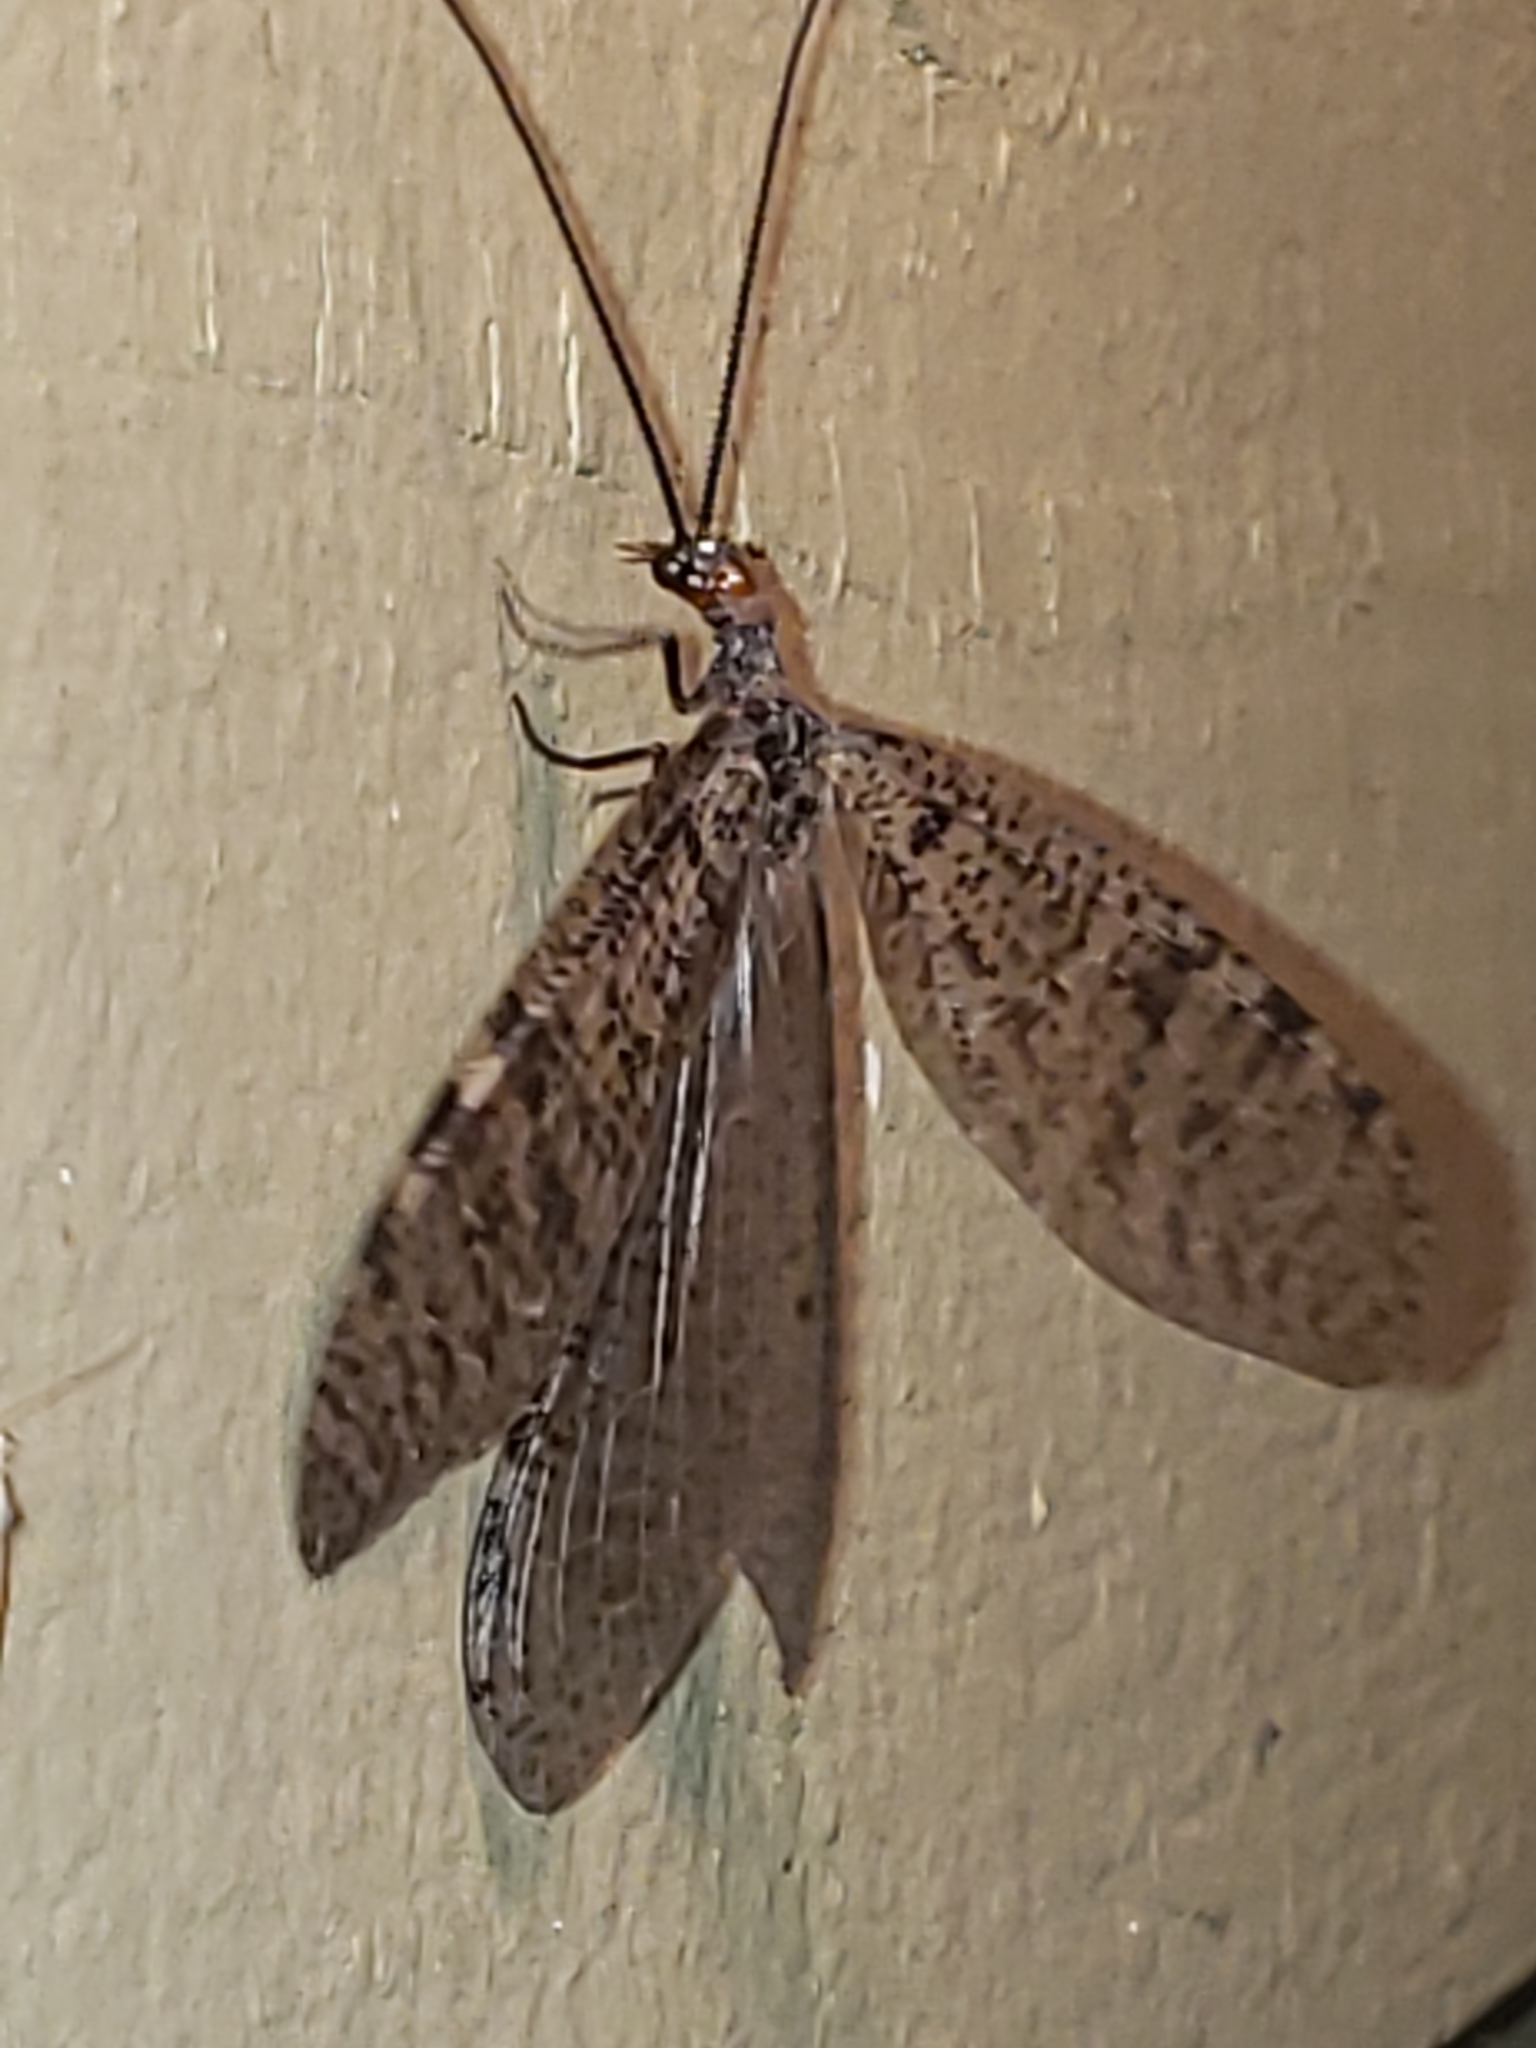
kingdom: Animalia
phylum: Arthropoda
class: Insecta
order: Megaloptera
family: Corydalidae
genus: Neohermes
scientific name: Neohermes concolor
